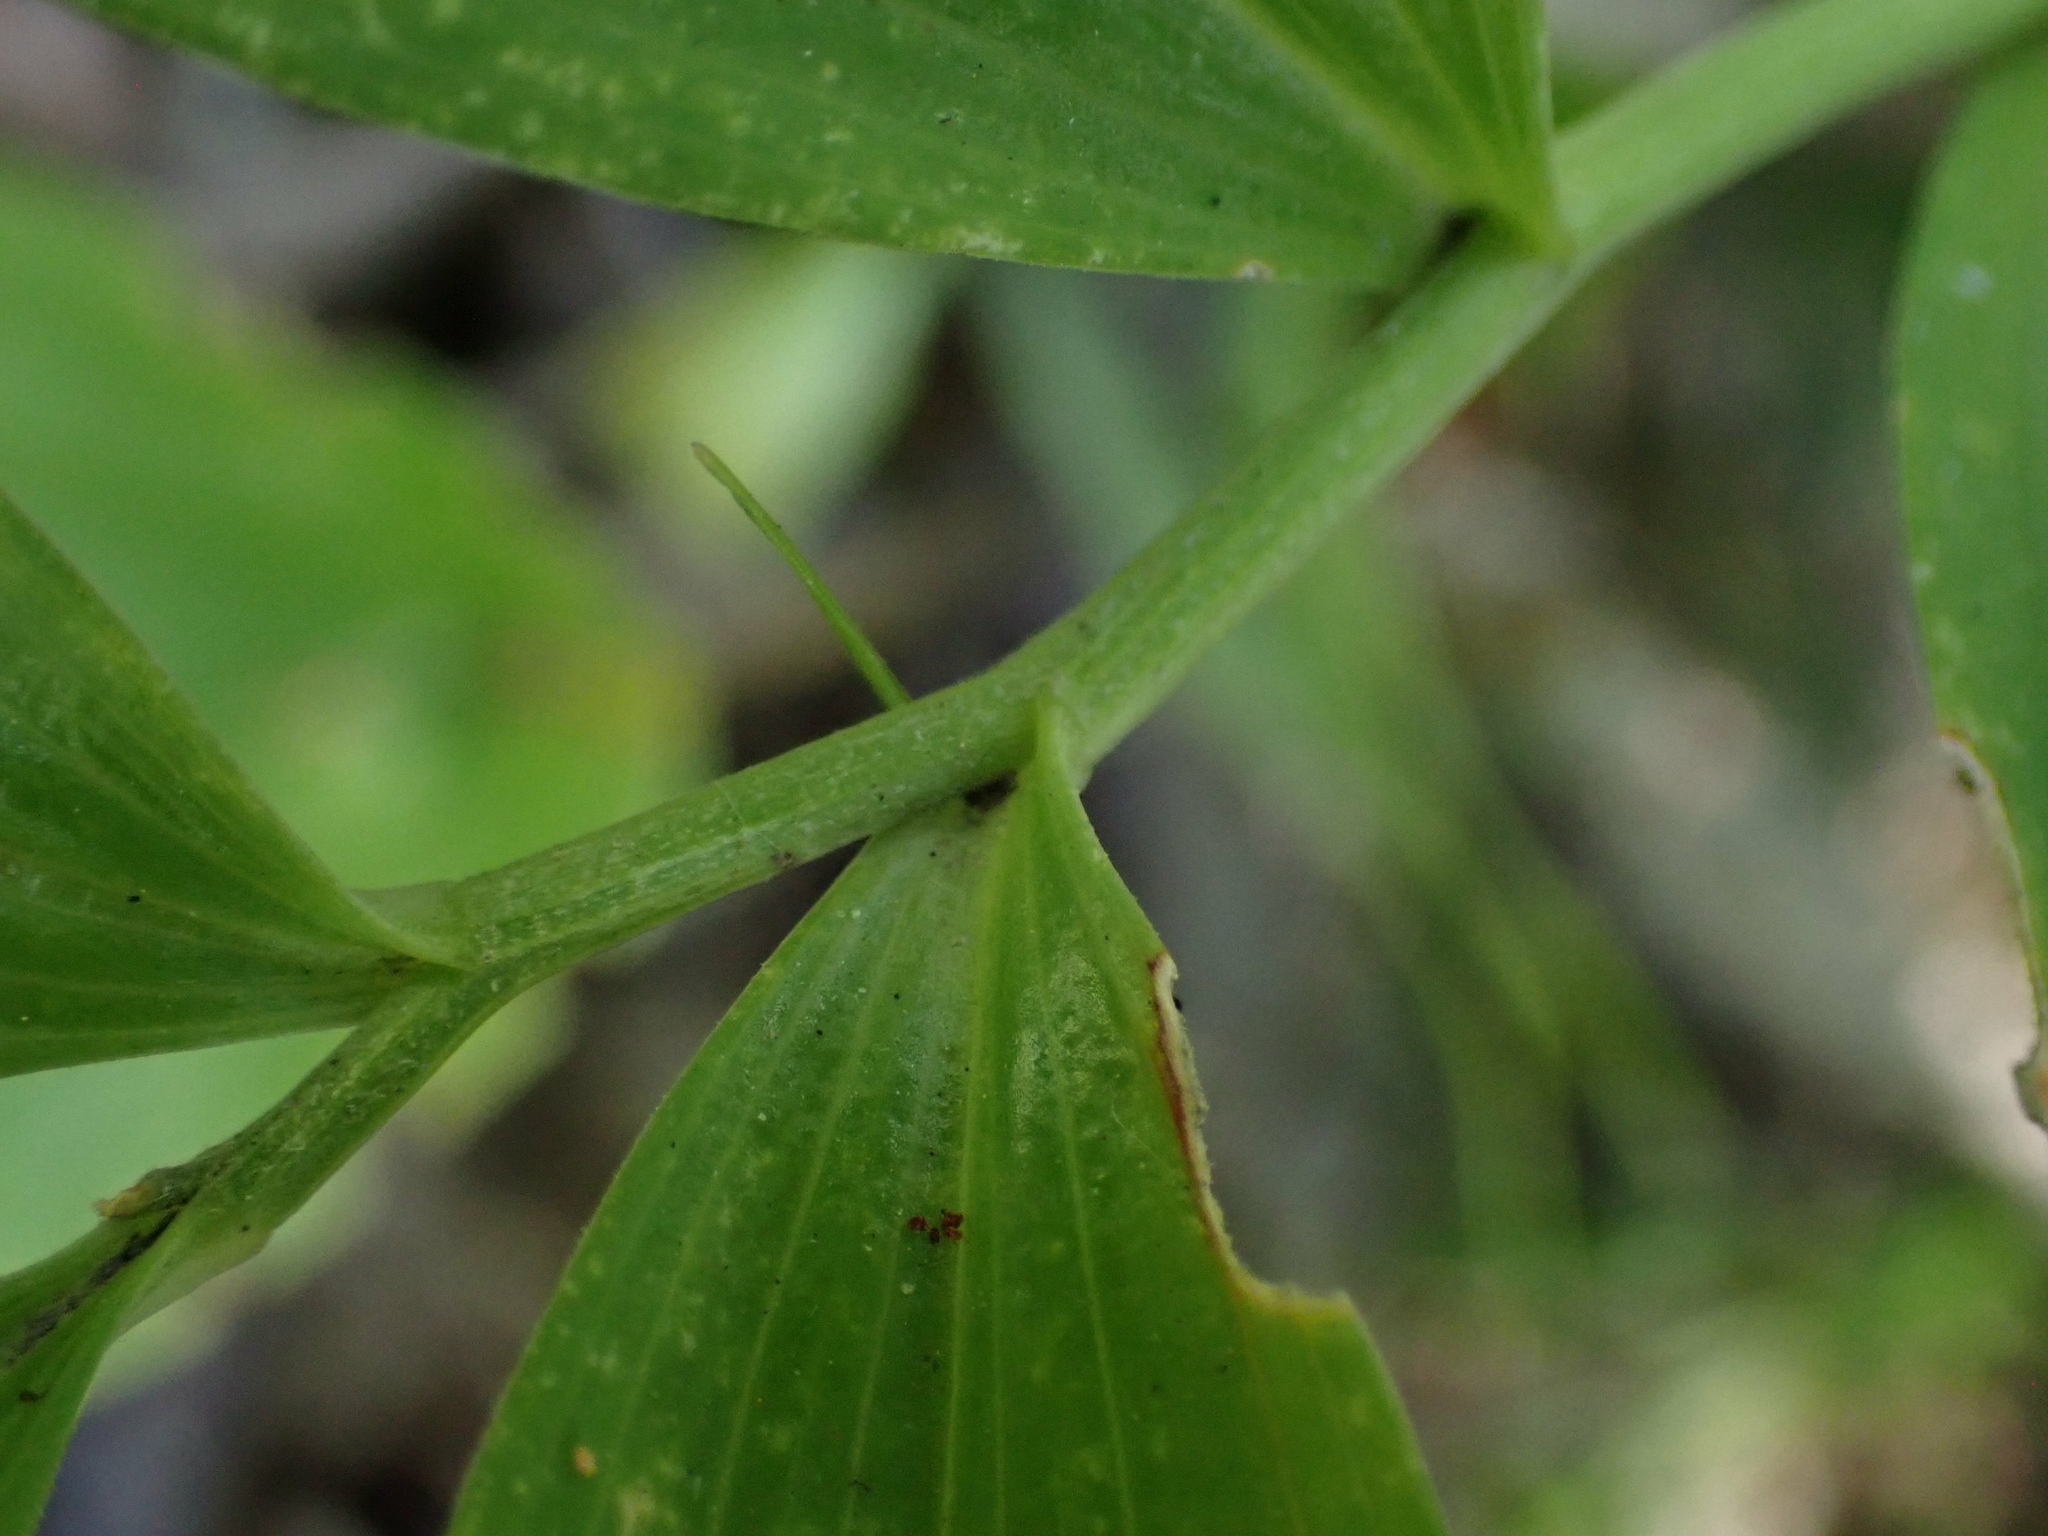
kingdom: Plantae
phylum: Tracheophyta
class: Liliopsida
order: Asparagales
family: Asparagaceae
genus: Maianthemum
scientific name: Maianthemum stellatum
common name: Little false solomon's seal
